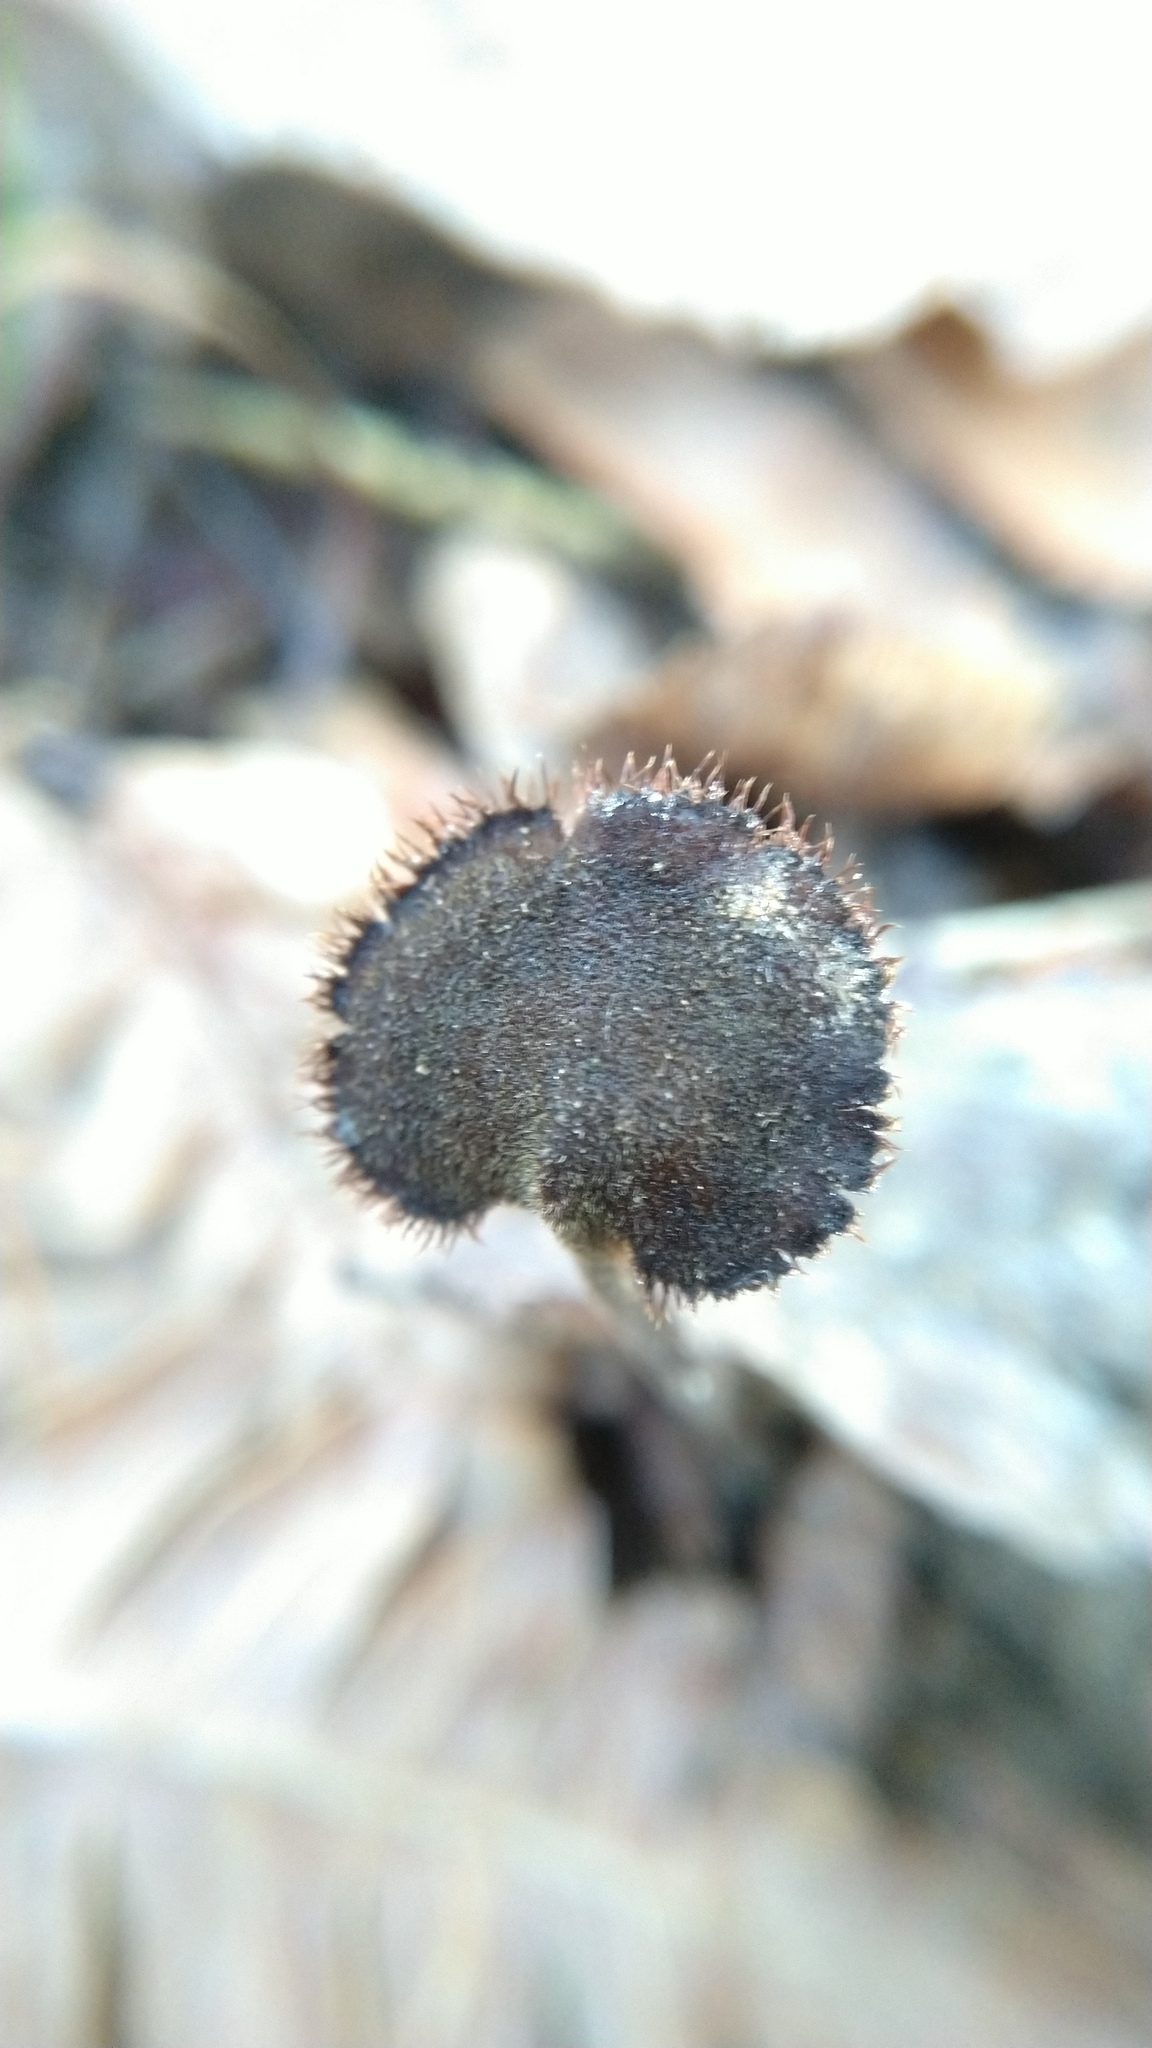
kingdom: Fungi
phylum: Basidiomycota
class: Agaricomycetes
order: Russulales
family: Auriscalpiaceae
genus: Auriscalpium
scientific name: Auriscalpium vulgare
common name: Earpick fungus
